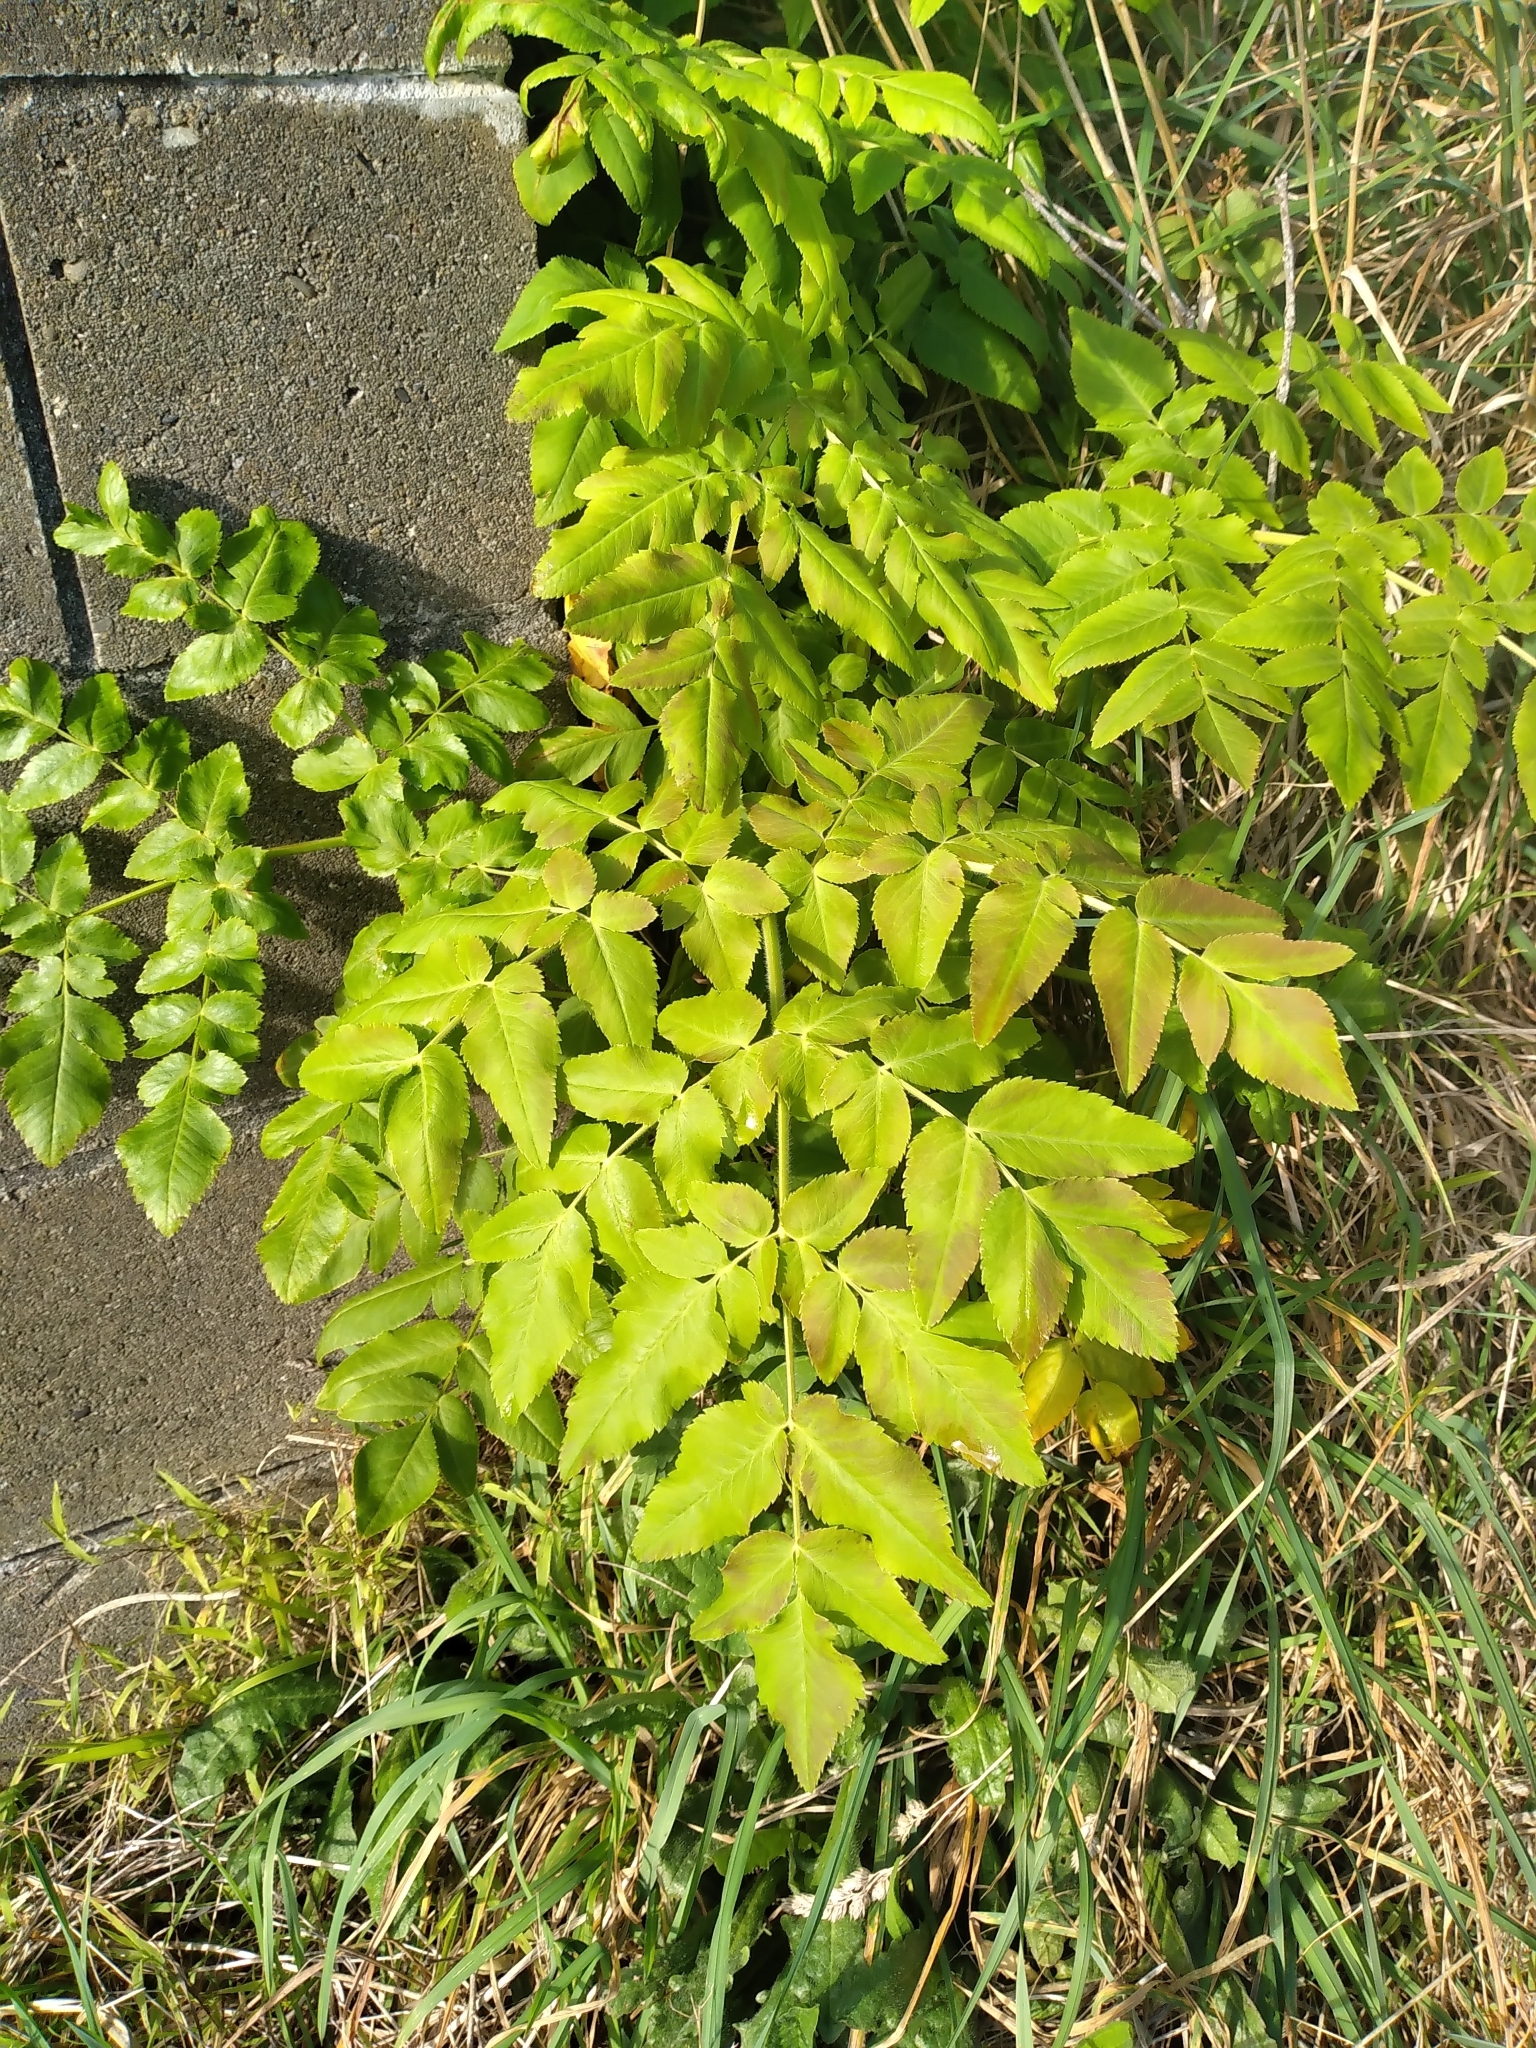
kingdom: Plantae
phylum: Tracheophyta
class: Magnoliopsida
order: Apiales
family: Apiaceae
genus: Daucus
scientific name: Daucus decipiens
